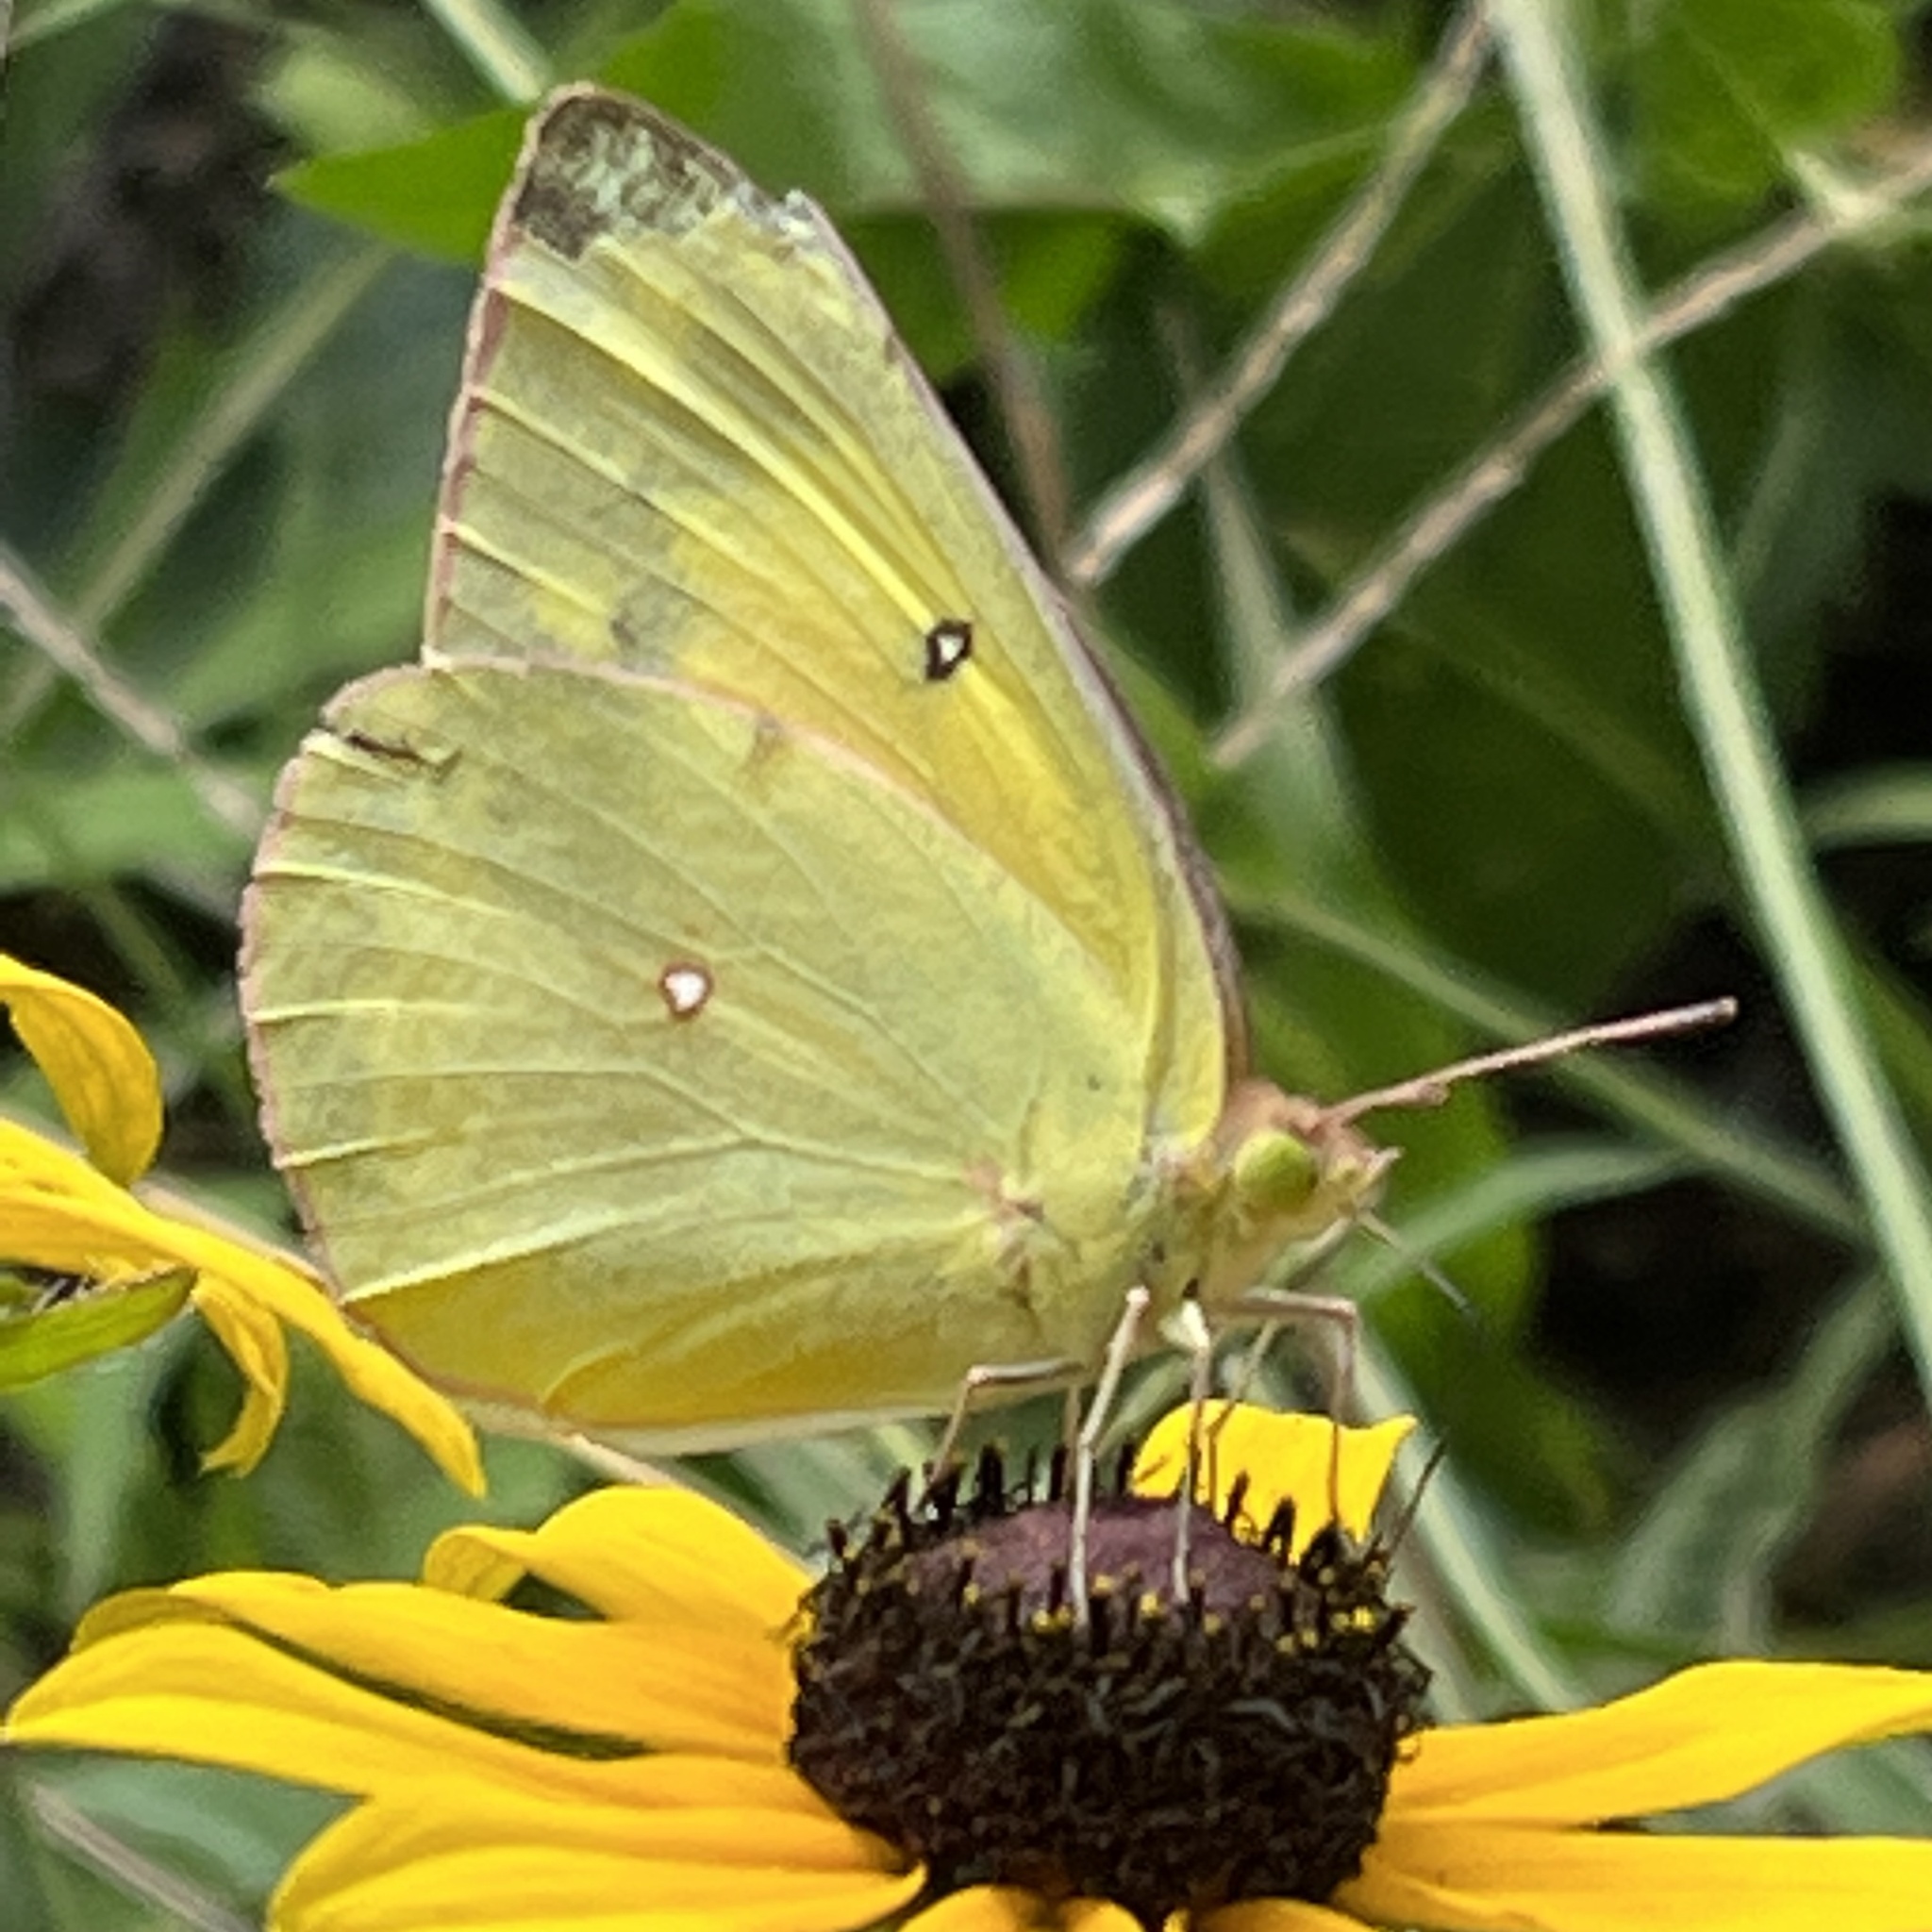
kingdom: Animalia
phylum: Arthropoda
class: Insecta
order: Lepidoptera
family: Pieridae
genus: Colias
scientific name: Colias eurytheme
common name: Alfalfa butterfly
